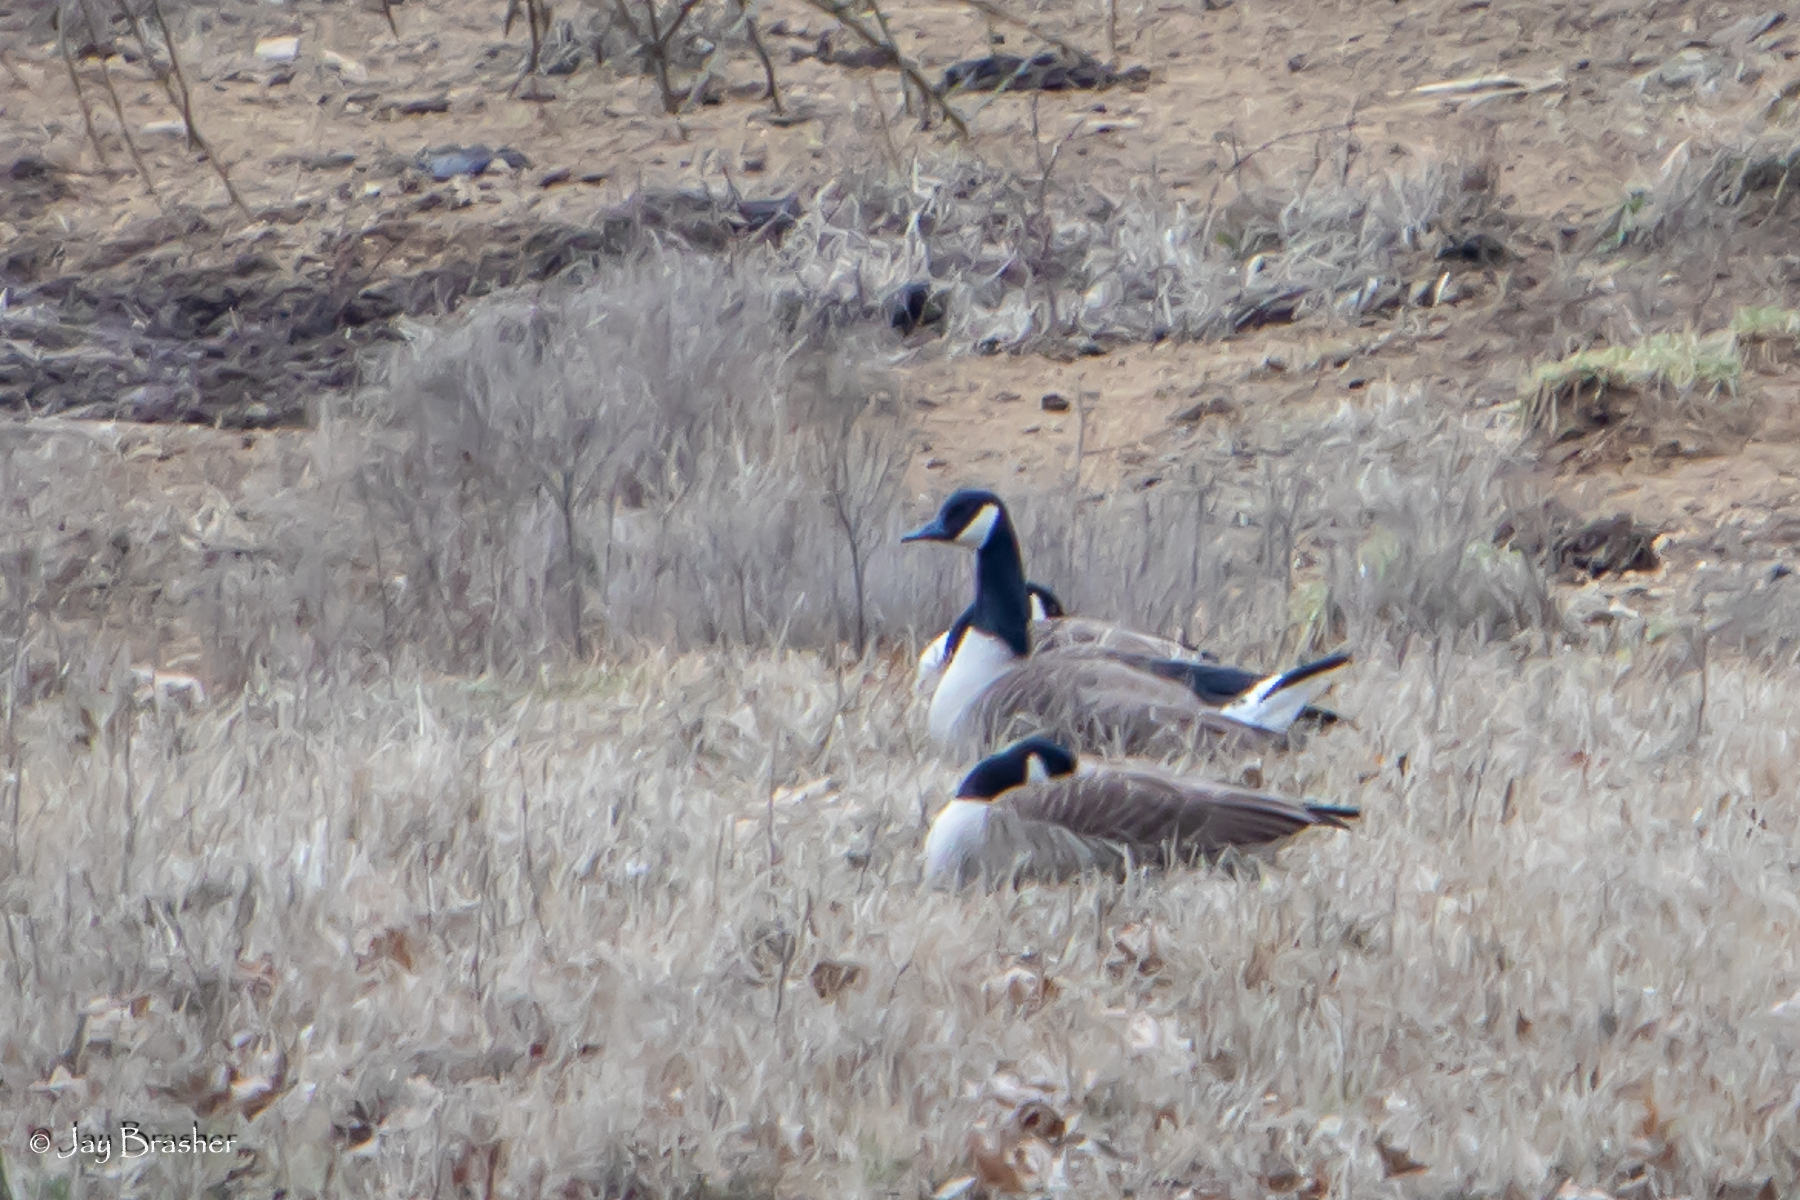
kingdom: Animalia
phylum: Chordata
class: Aves
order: Anseriformes
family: Anatidae
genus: Branta
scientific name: Branta canadensis
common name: Canada goose
